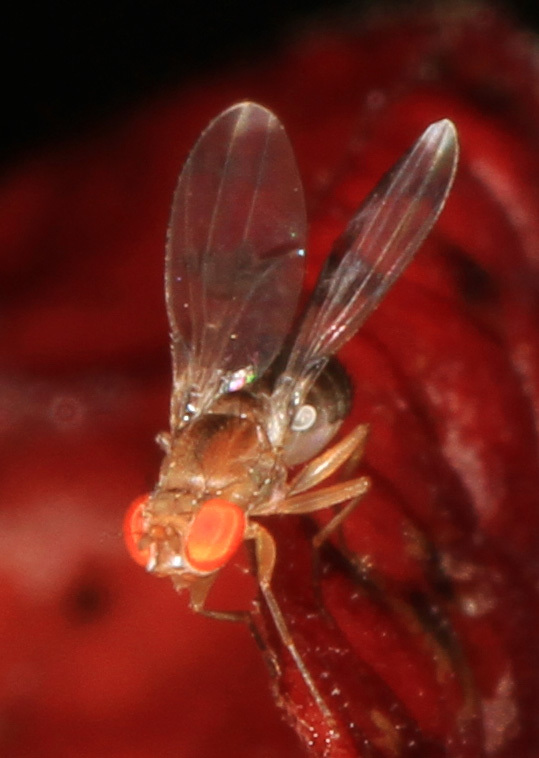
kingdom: Animalia
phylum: Arthropoda
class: Insecta
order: Diptera
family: Drosophilidae
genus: Chymomyza
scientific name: Chymomyza amoena
